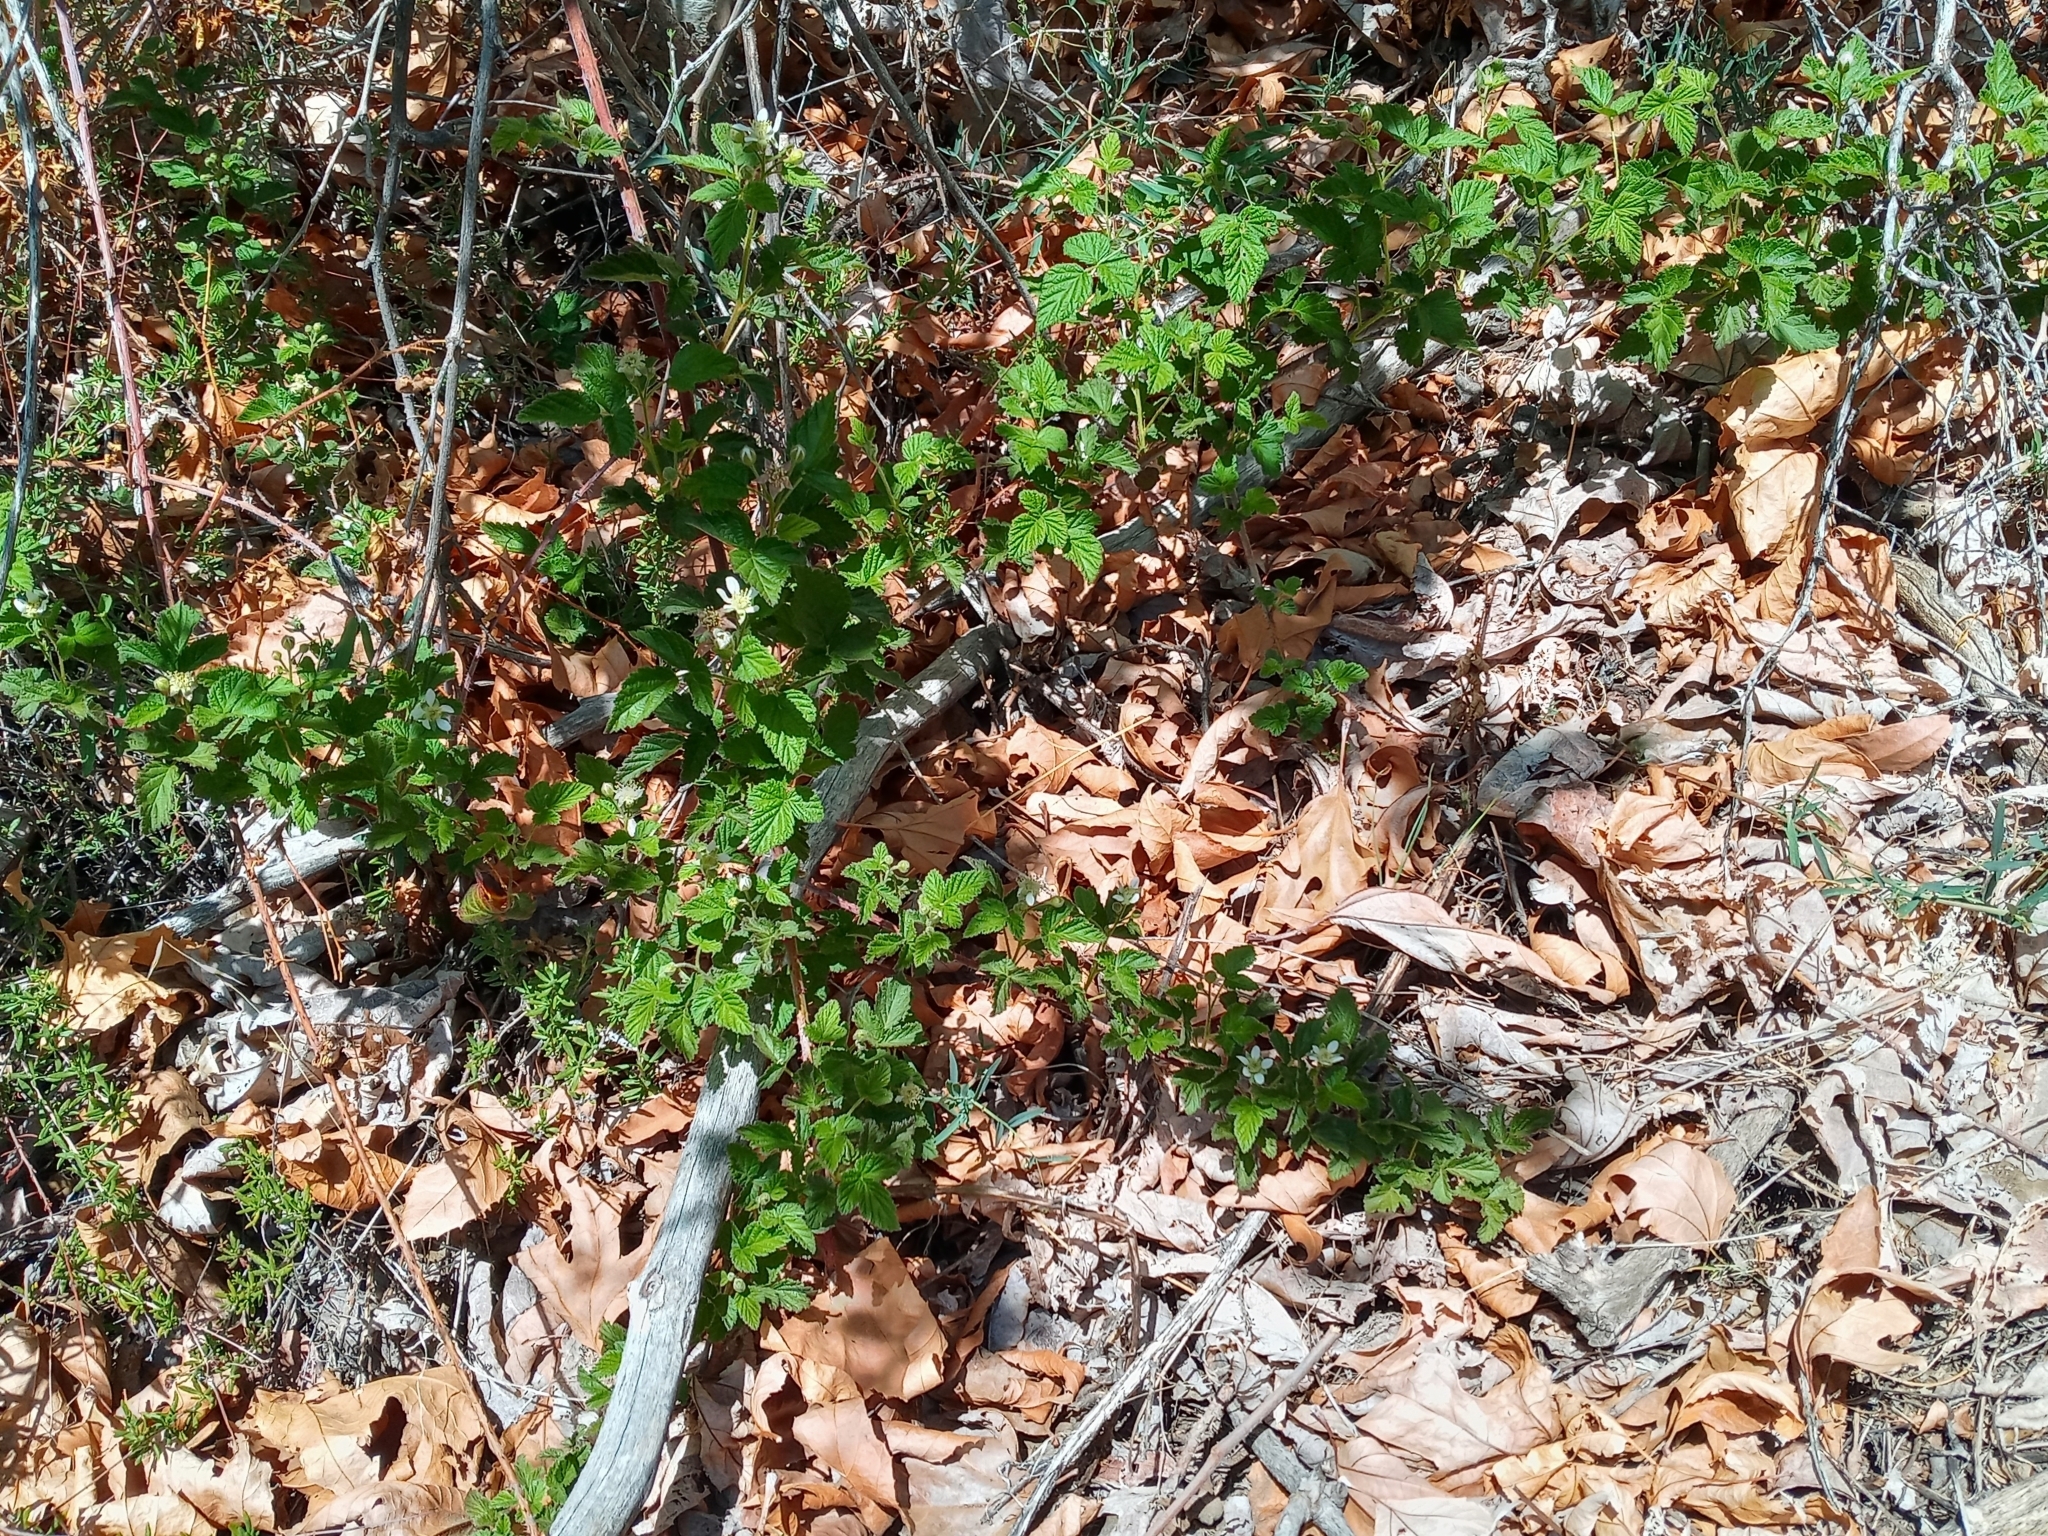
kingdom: Plantae
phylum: Tracheophyta
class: Magnoliopsida
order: Rosales
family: Rosaceae
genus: Rubus
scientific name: Rubus ursinus
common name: Pacific blackberry
